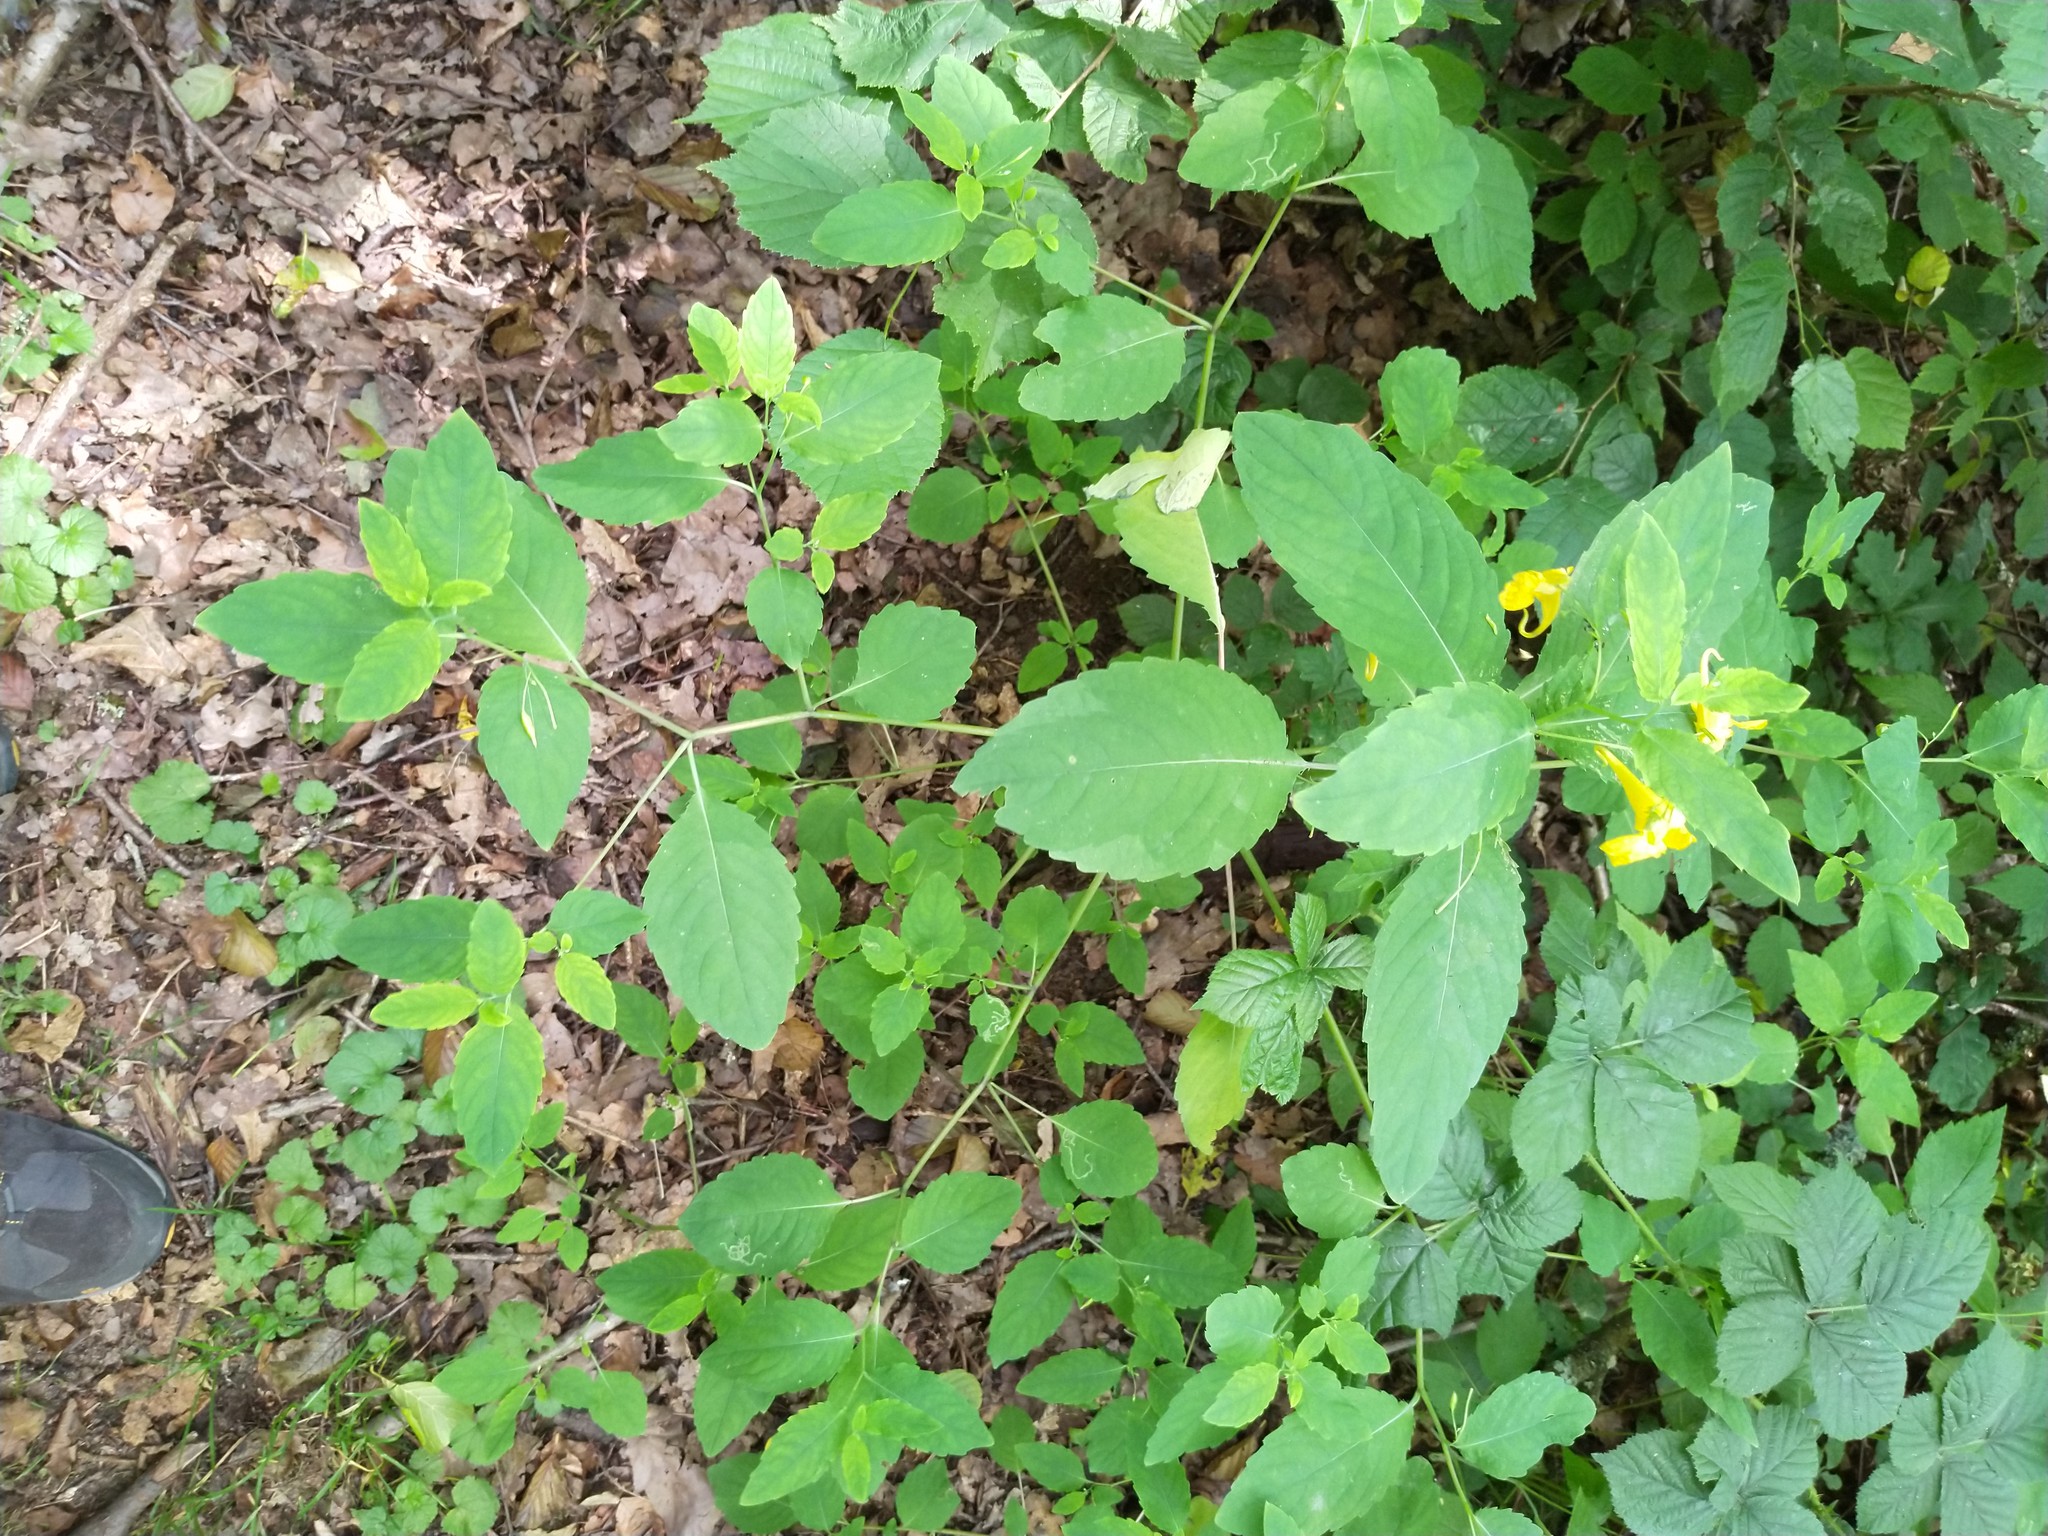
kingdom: Plantae
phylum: Tracheophyta
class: Magnoliopsida
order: Ericales
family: Balsaminaceae
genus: Impatiens
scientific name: Impatiens noli-tangere
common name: Touch-me-not balsam
